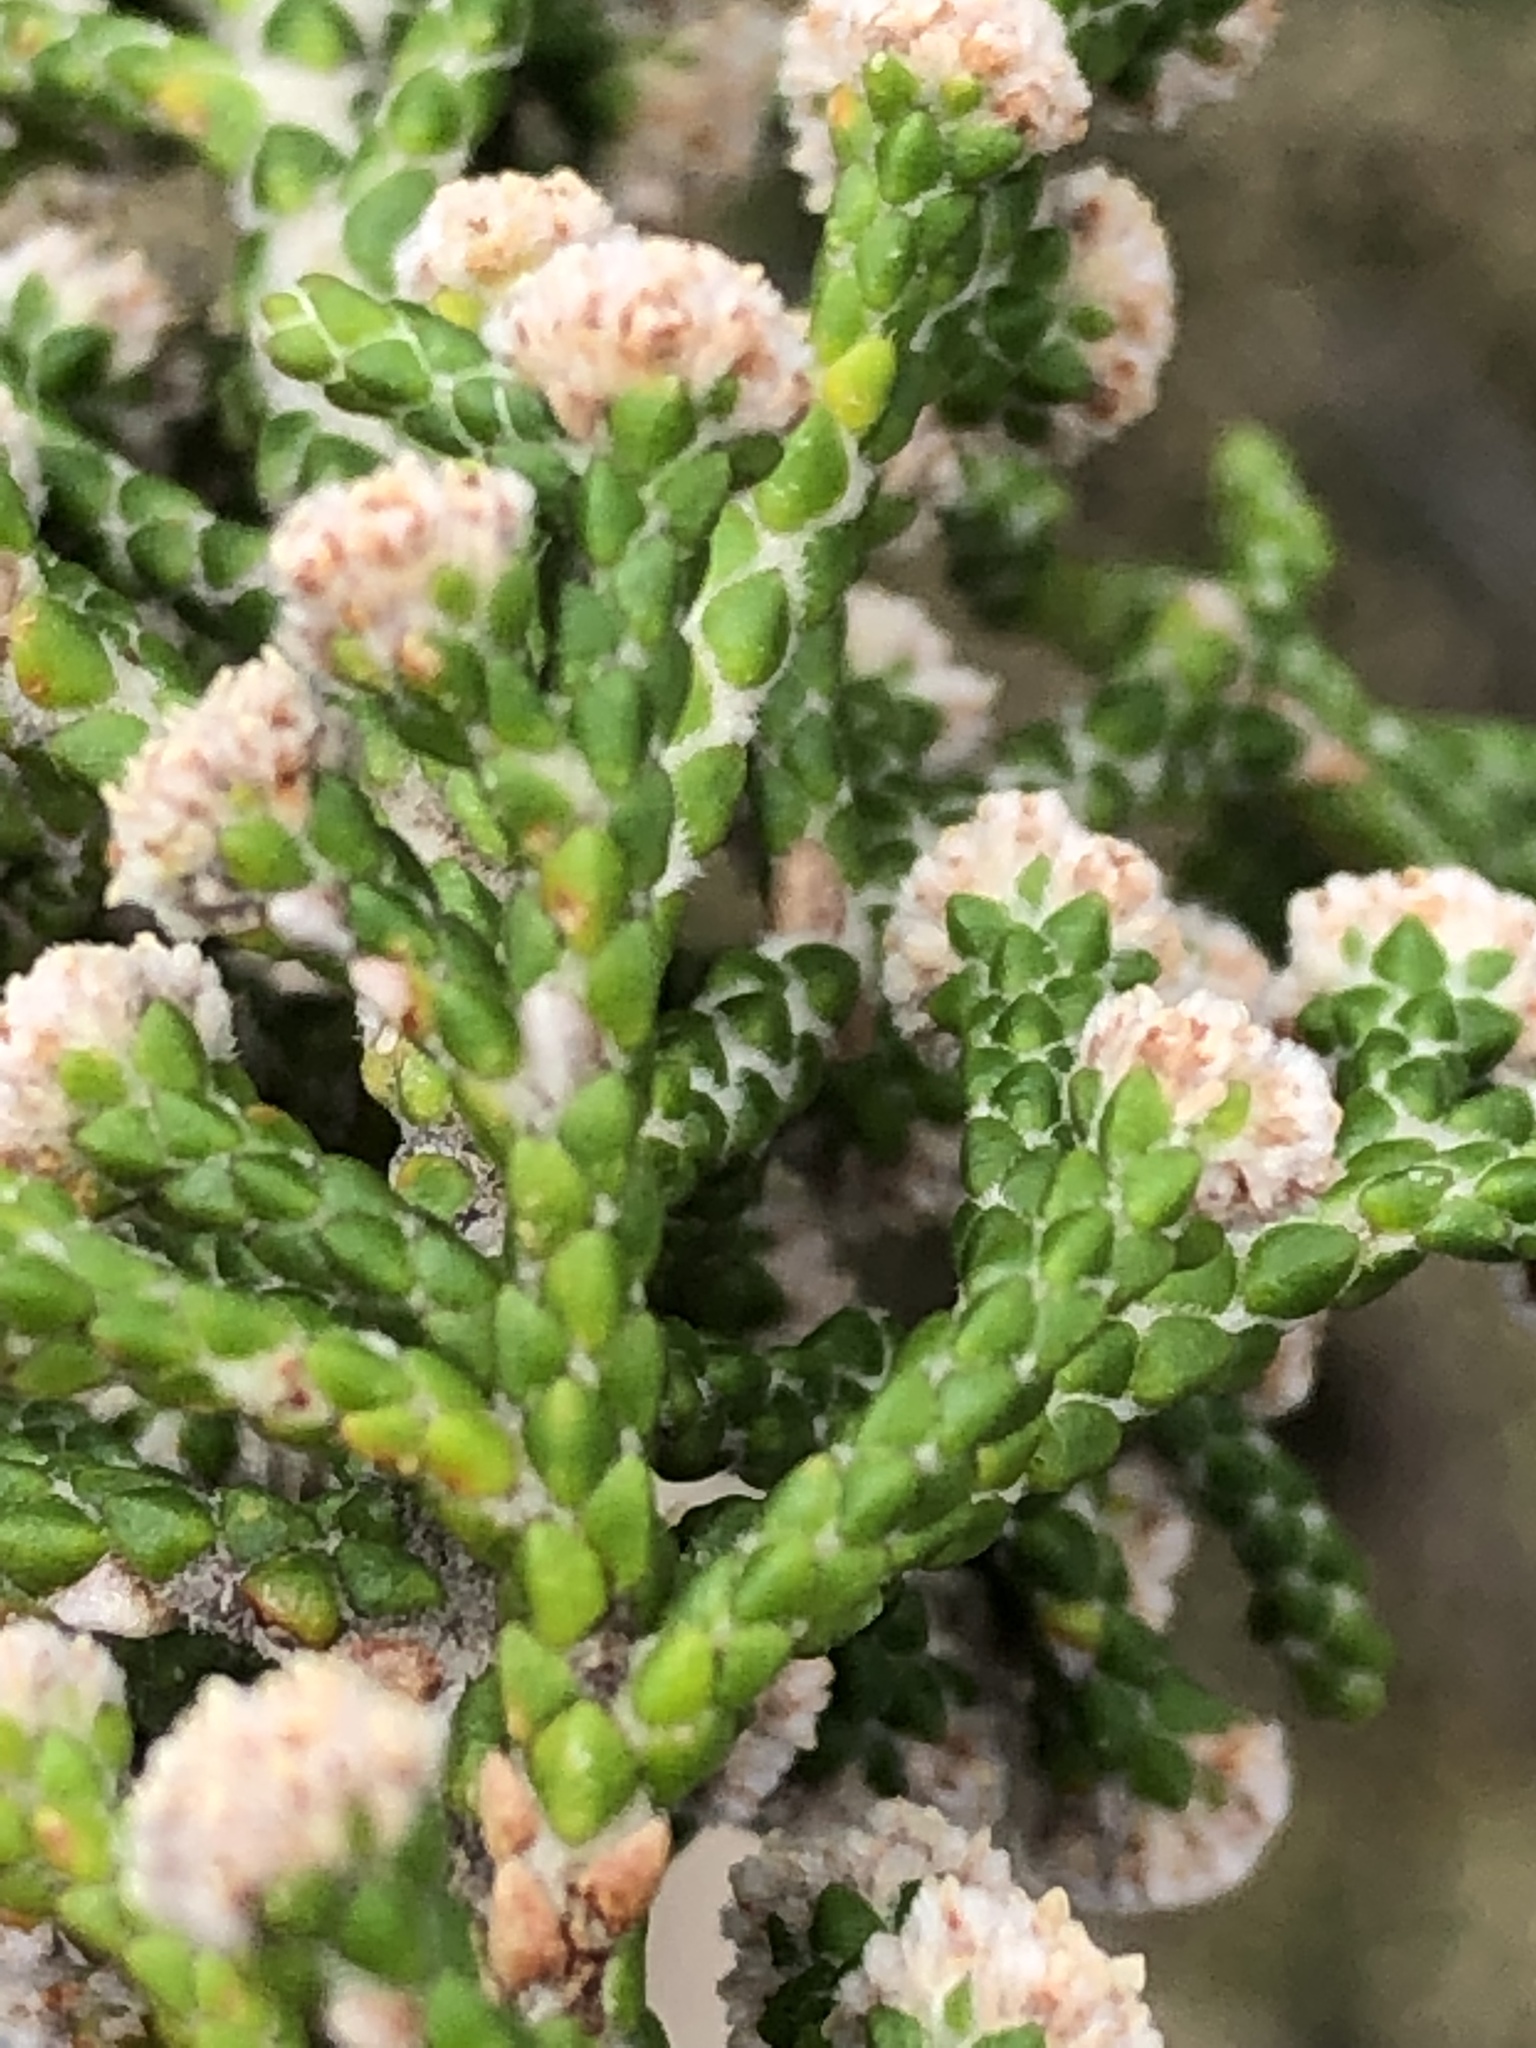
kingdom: Plantae
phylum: Tracheophyta
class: Magnoliopsida
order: Bruniales
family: Bruniaceae
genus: Brunia
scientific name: Brunia microphylla
